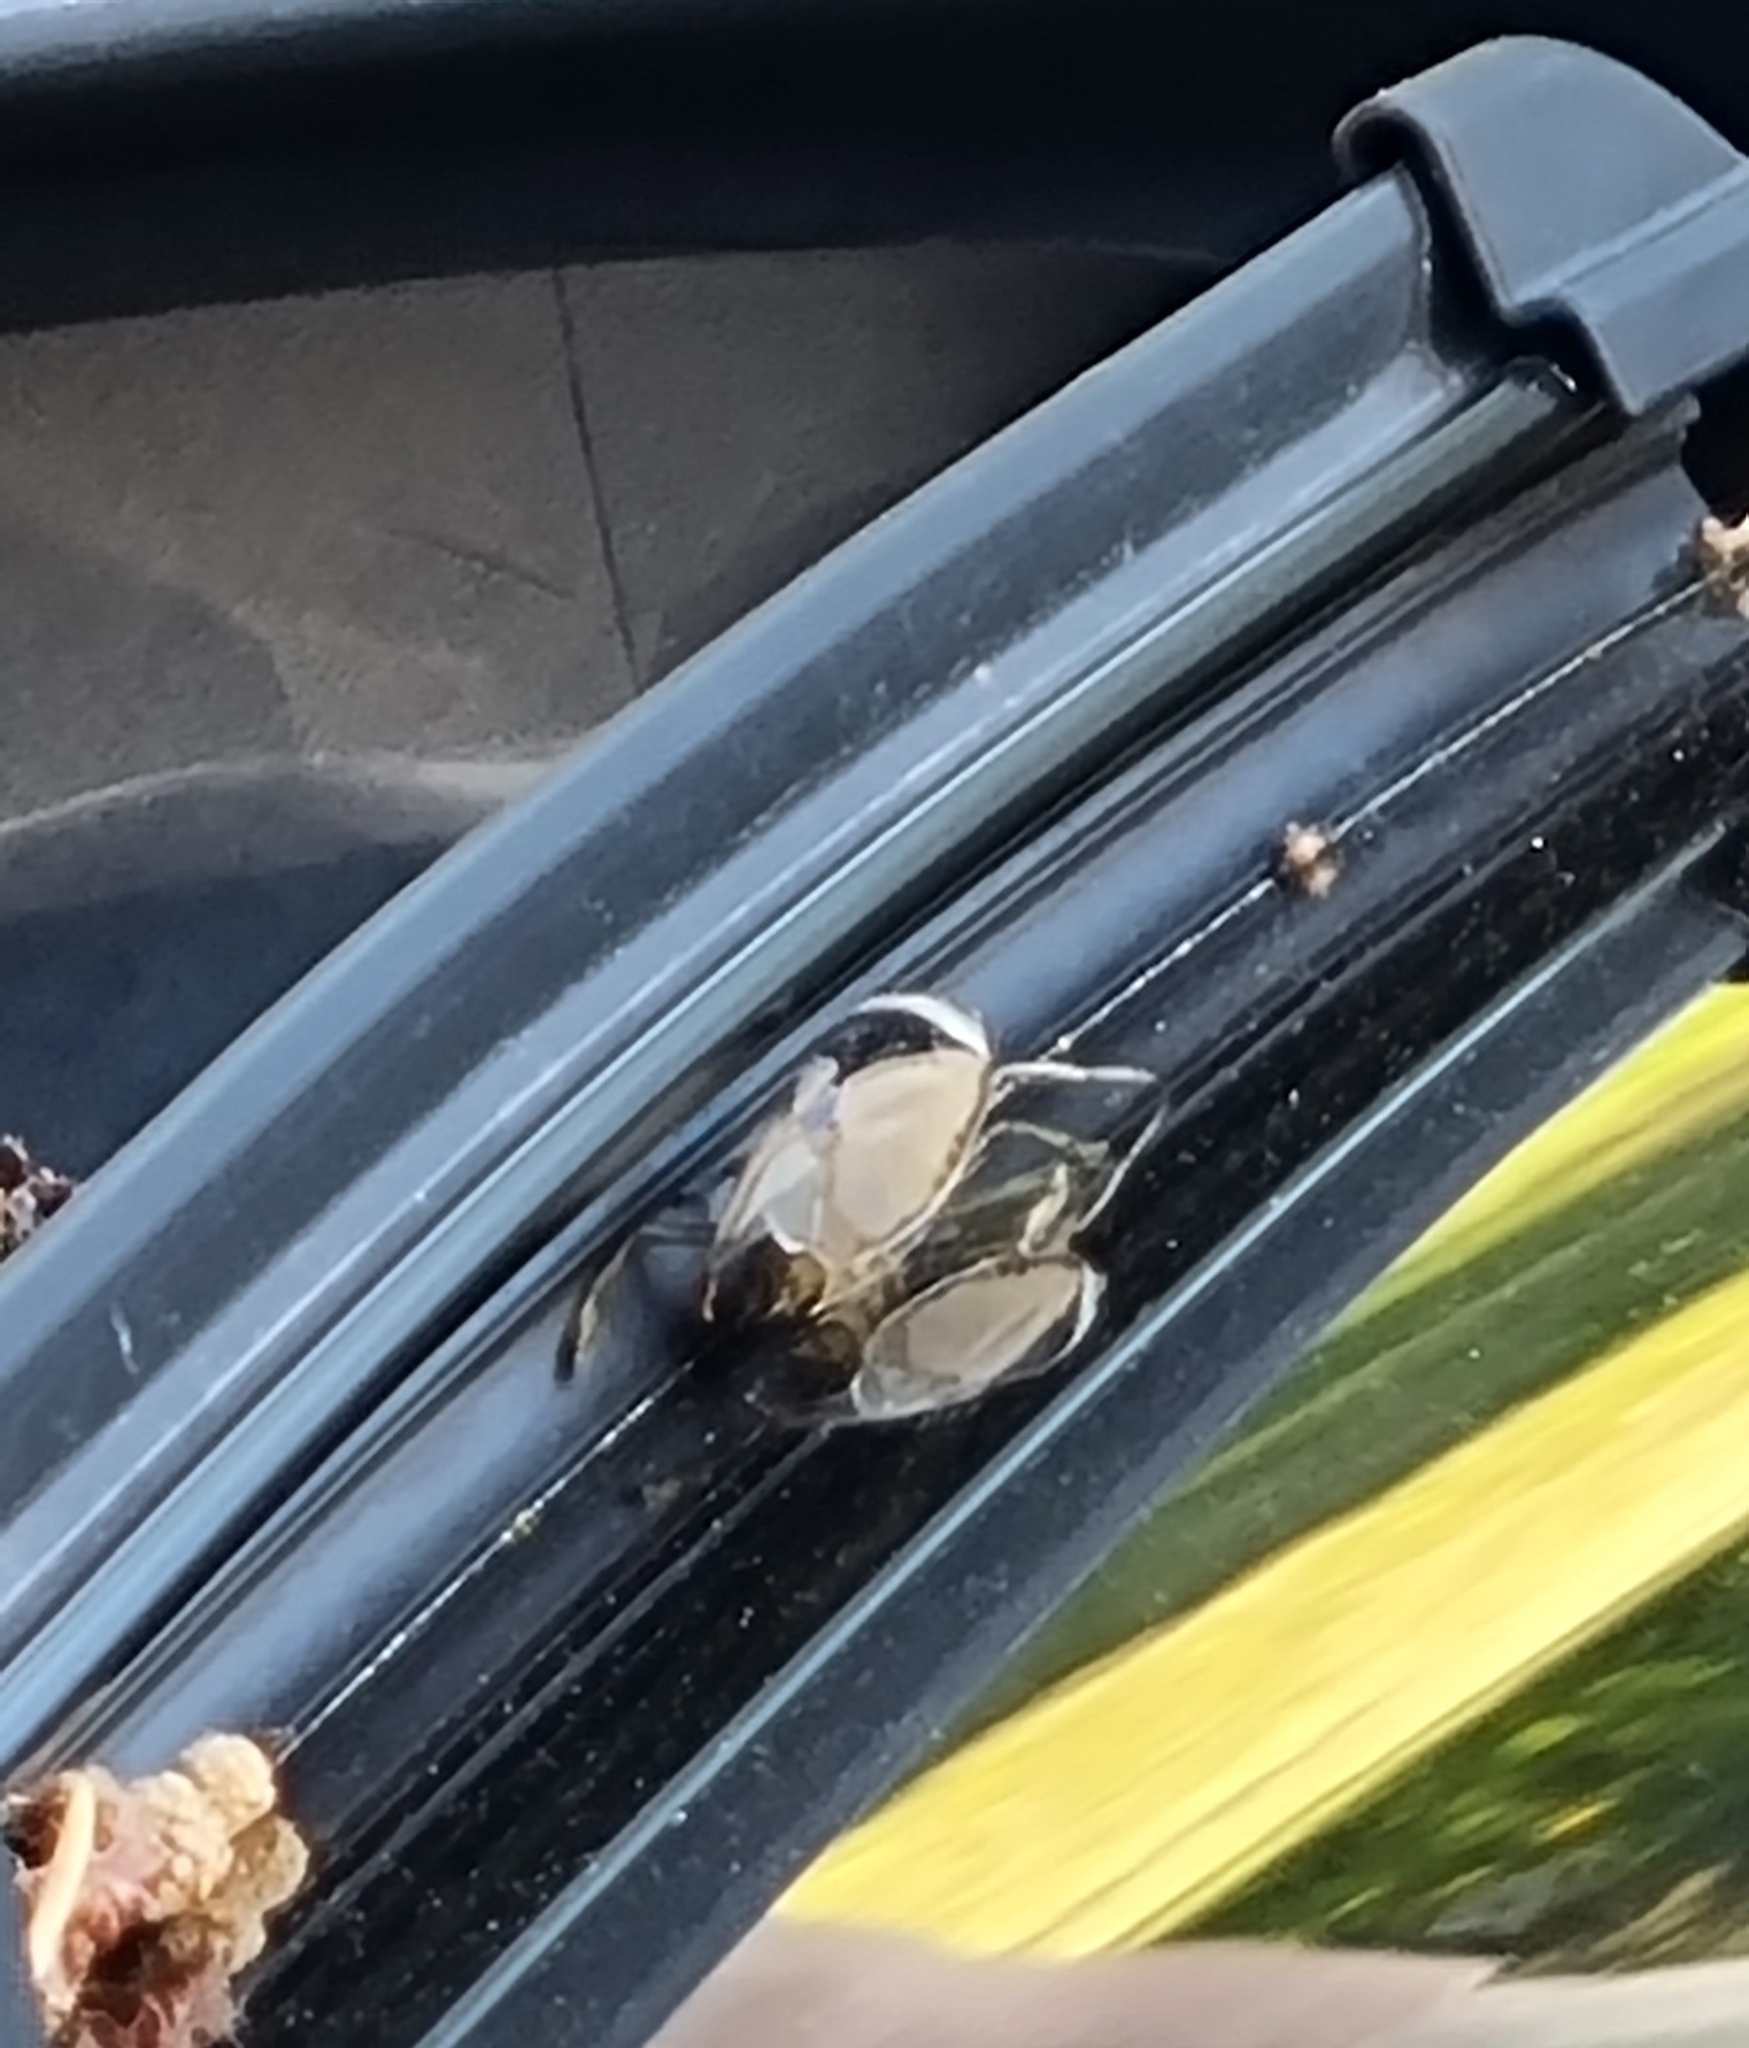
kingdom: Animalia
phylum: Arthropoda
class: Insecta
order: Hemiptera
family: Notonectidae
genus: Notonecta
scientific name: Notonecta glauca
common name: Common water-boatman
